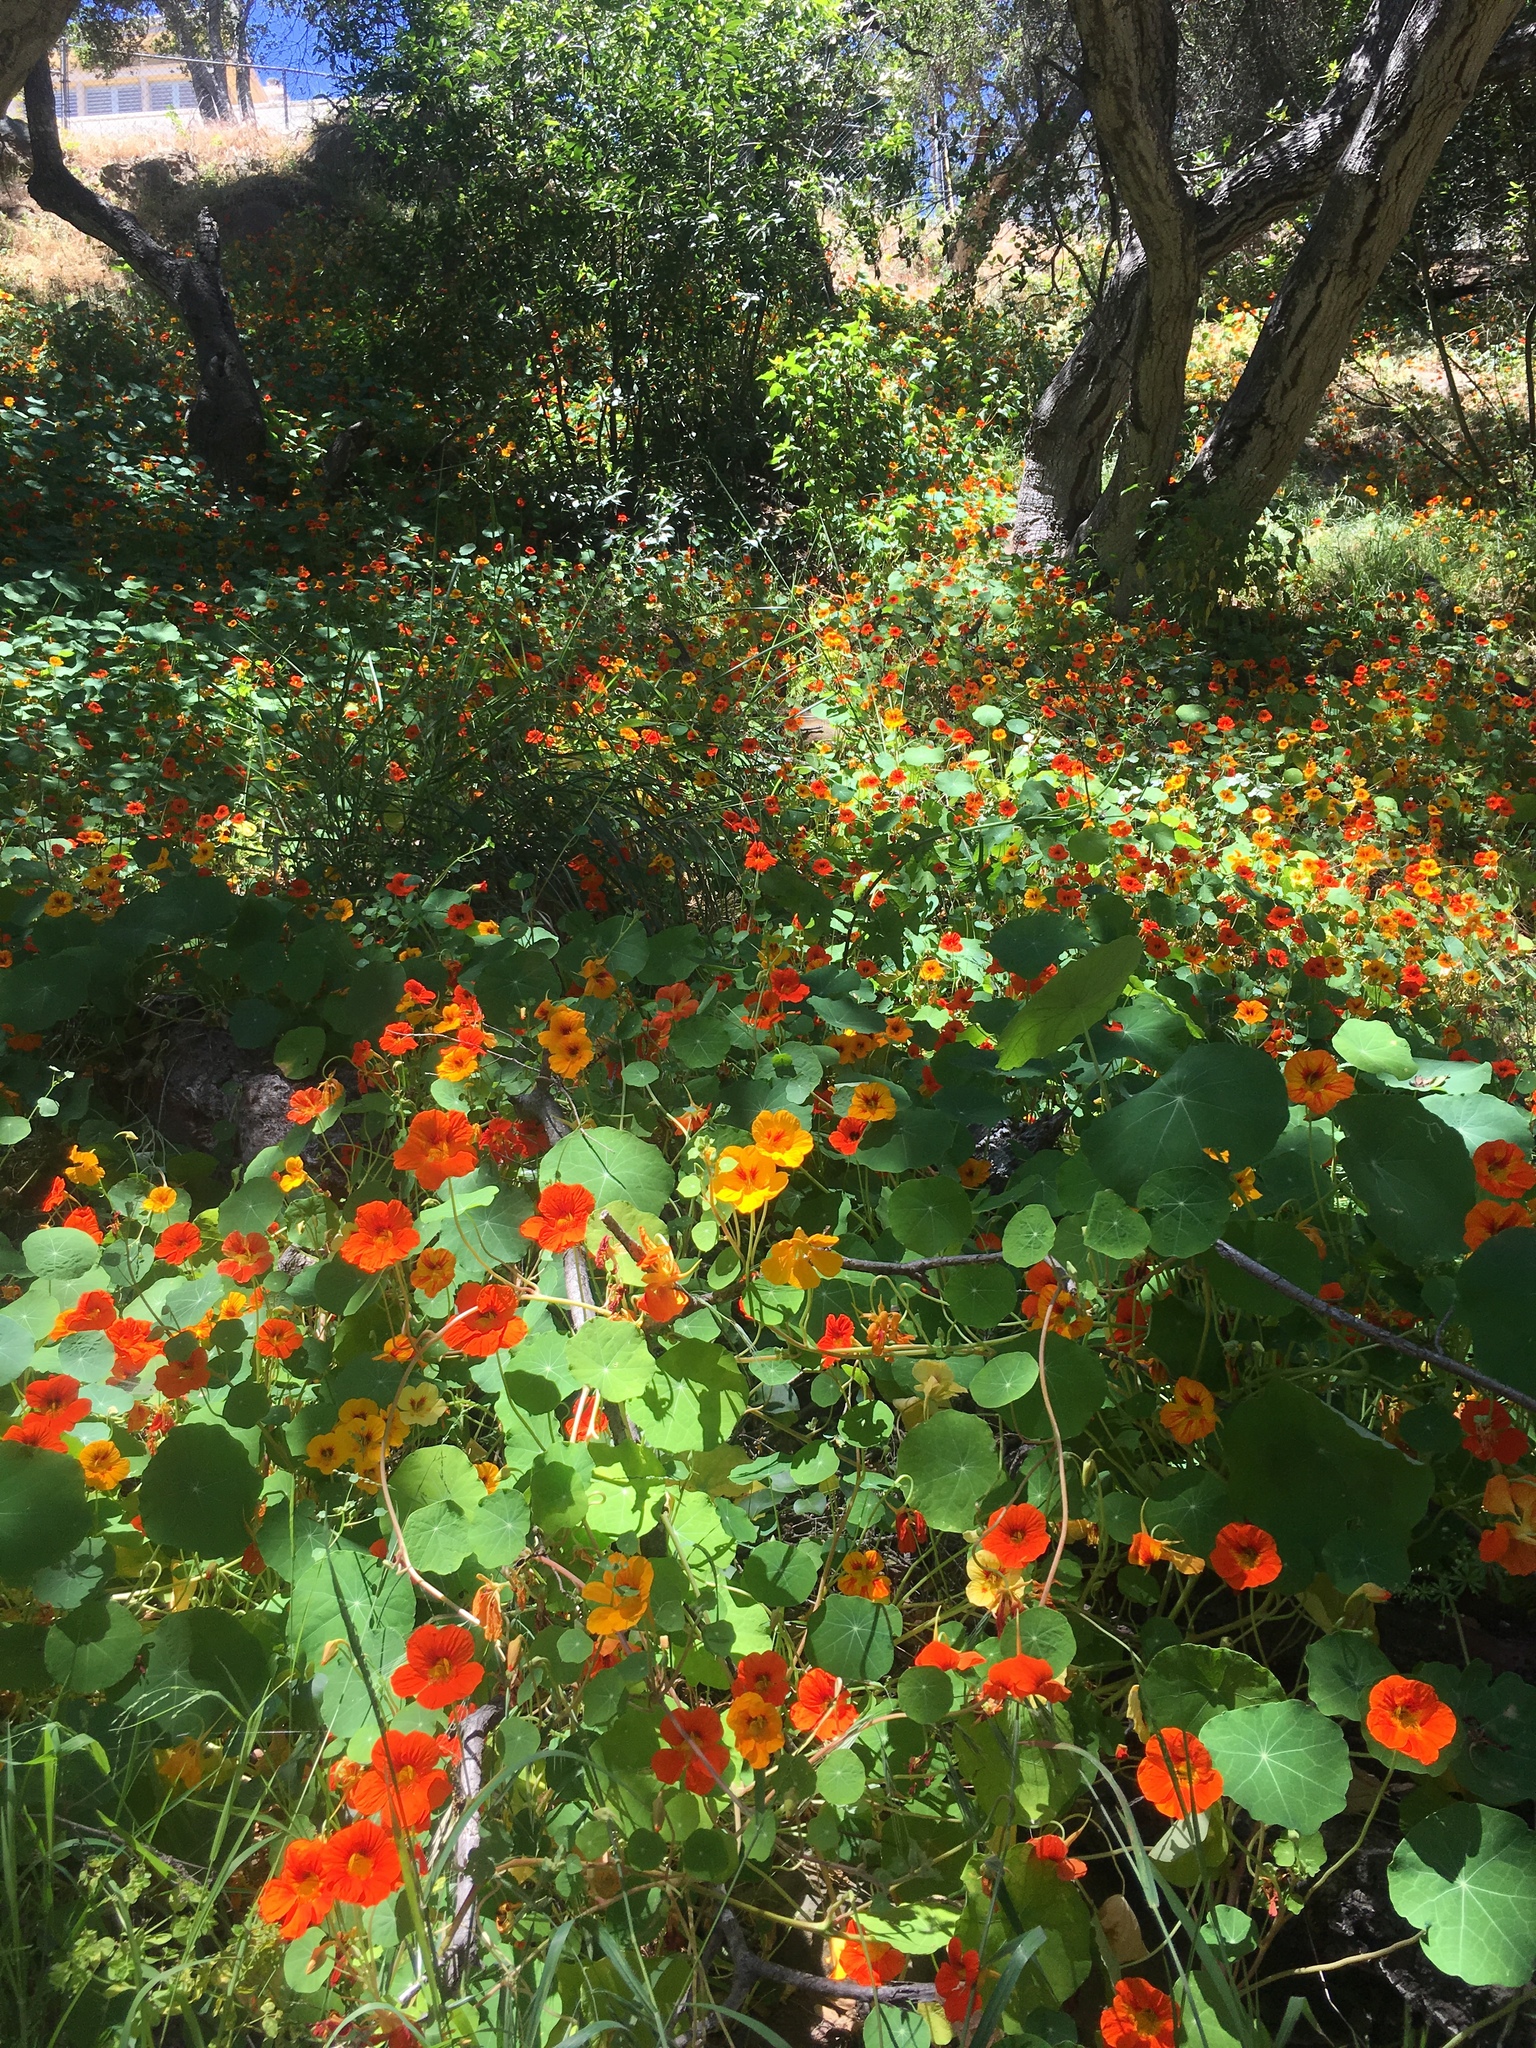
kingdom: Plantae
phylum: Tracheophyta
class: Magnoliopsida
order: Brassicales
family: Tropaeolaceae
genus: Tropaeolum
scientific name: Tropaeolum majus
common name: Nasturtium
